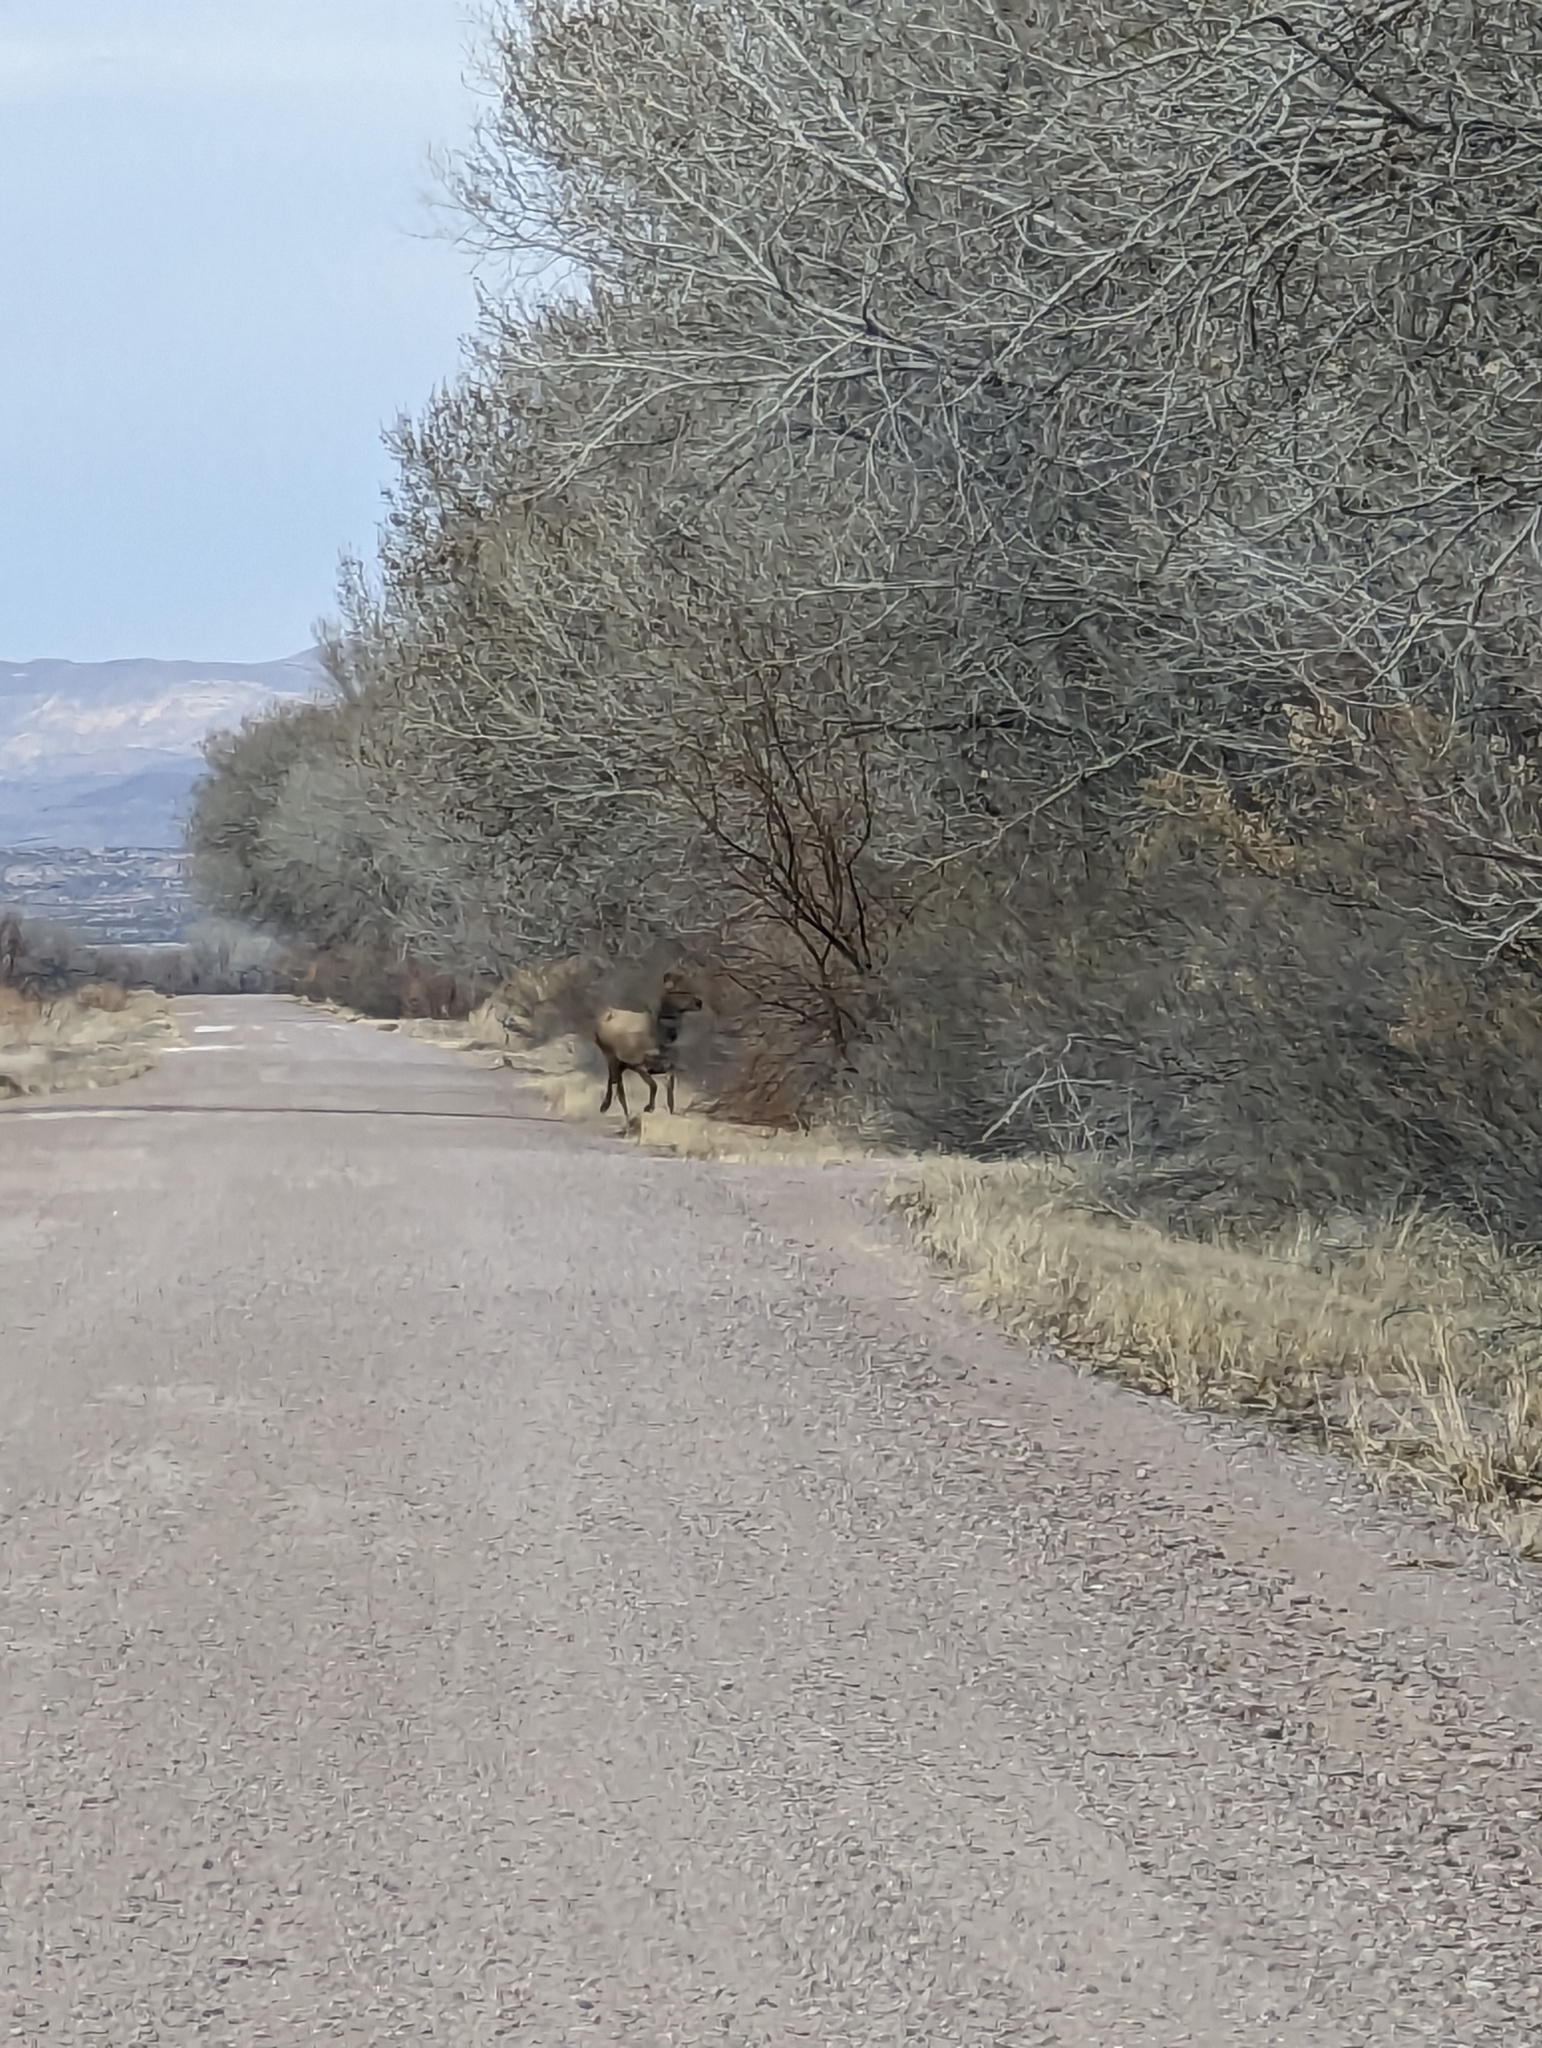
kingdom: Animalia
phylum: Chordata
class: Mammalia
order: Artiodactyla
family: Cervidae
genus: Cervus
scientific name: Cervus elaphus
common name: Red deer
